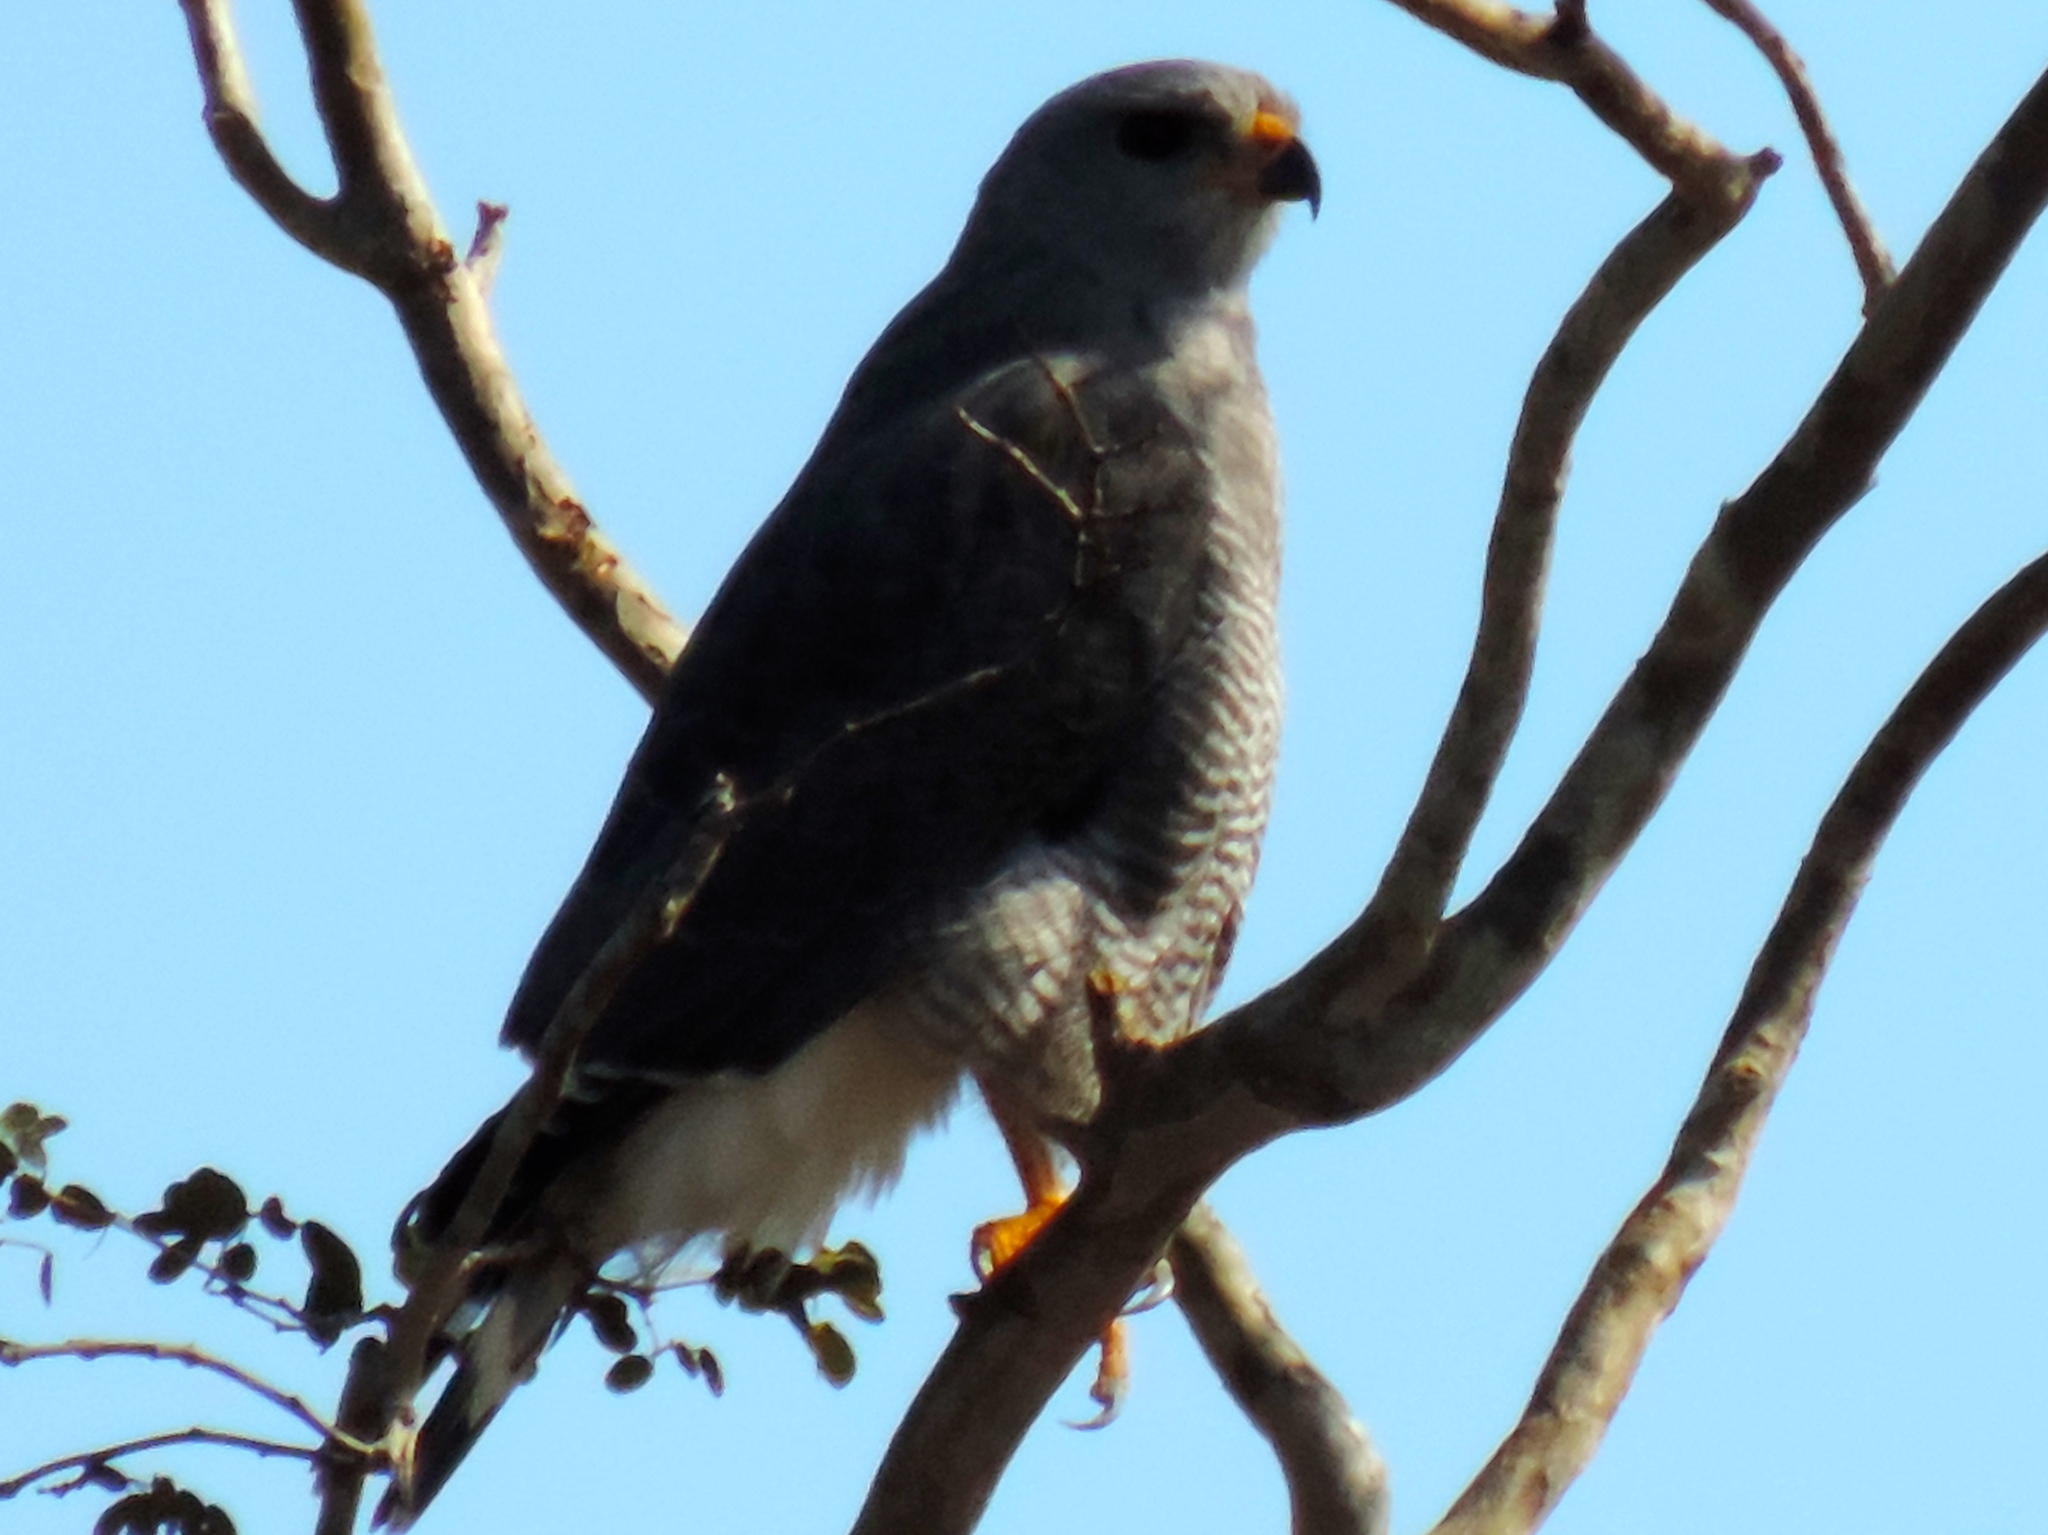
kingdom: Animalia
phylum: Chordata
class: Aves
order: Accipitriformes
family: Accipitridae
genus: Buteo
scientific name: Buteo nitidus
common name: Grey-lined hawk
